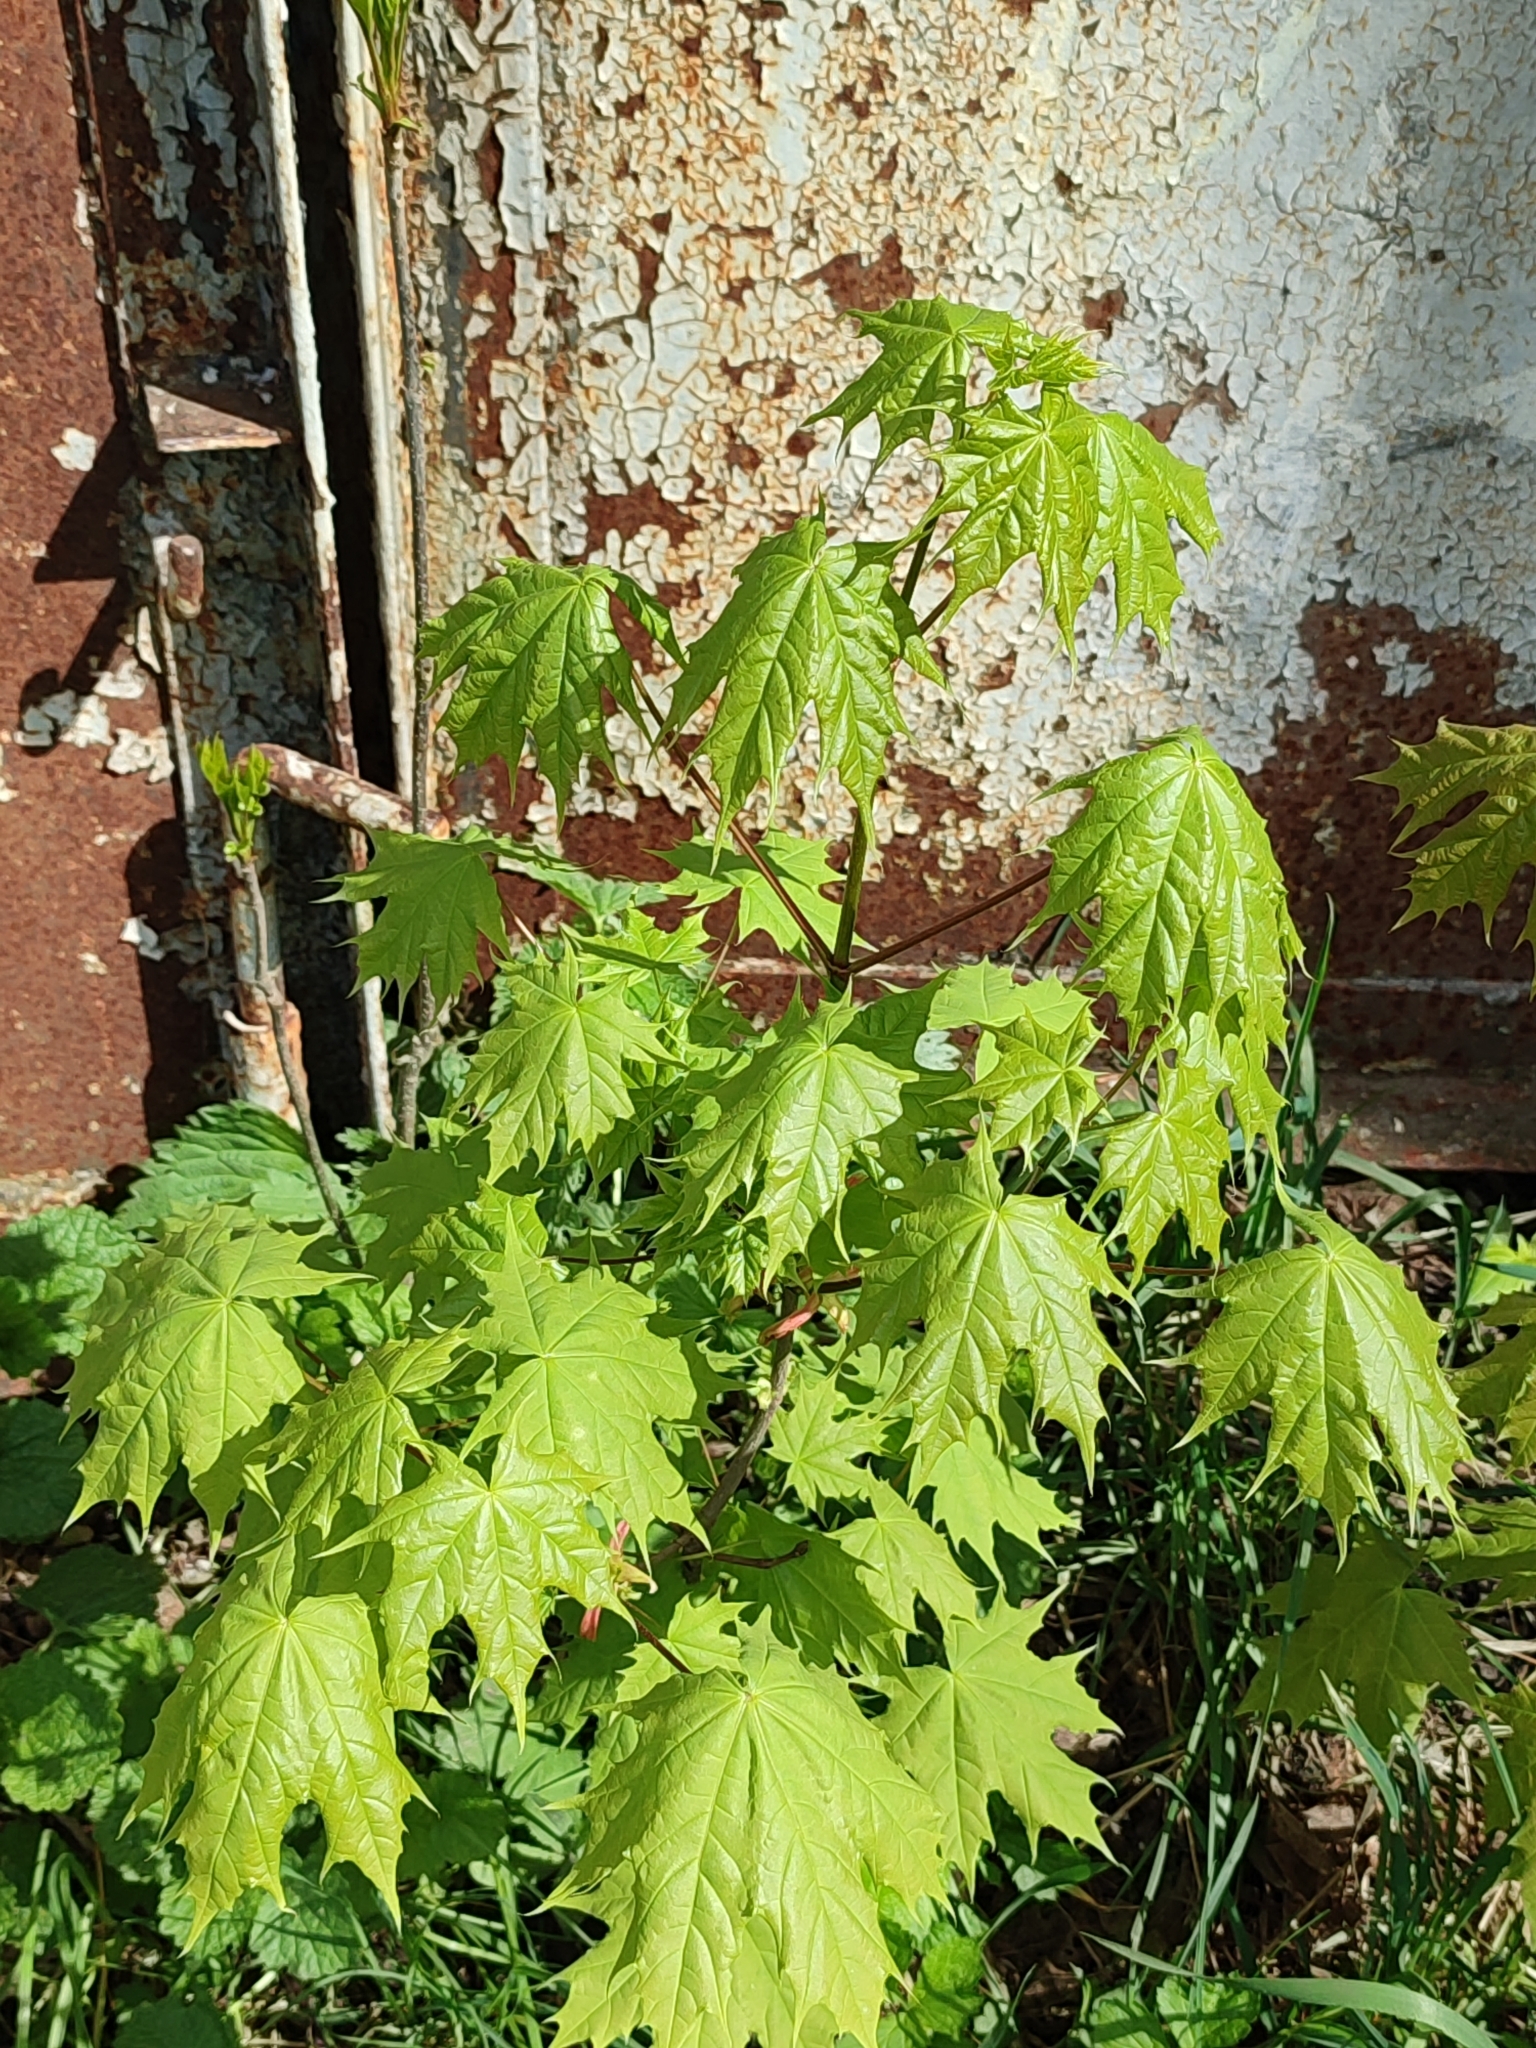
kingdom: Plantae
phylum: Tracheophyta
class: Magnoliopsida
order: Sapindales
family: Sapindaceae
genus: Acer
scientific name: Acer platanoides
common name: Norway maple
